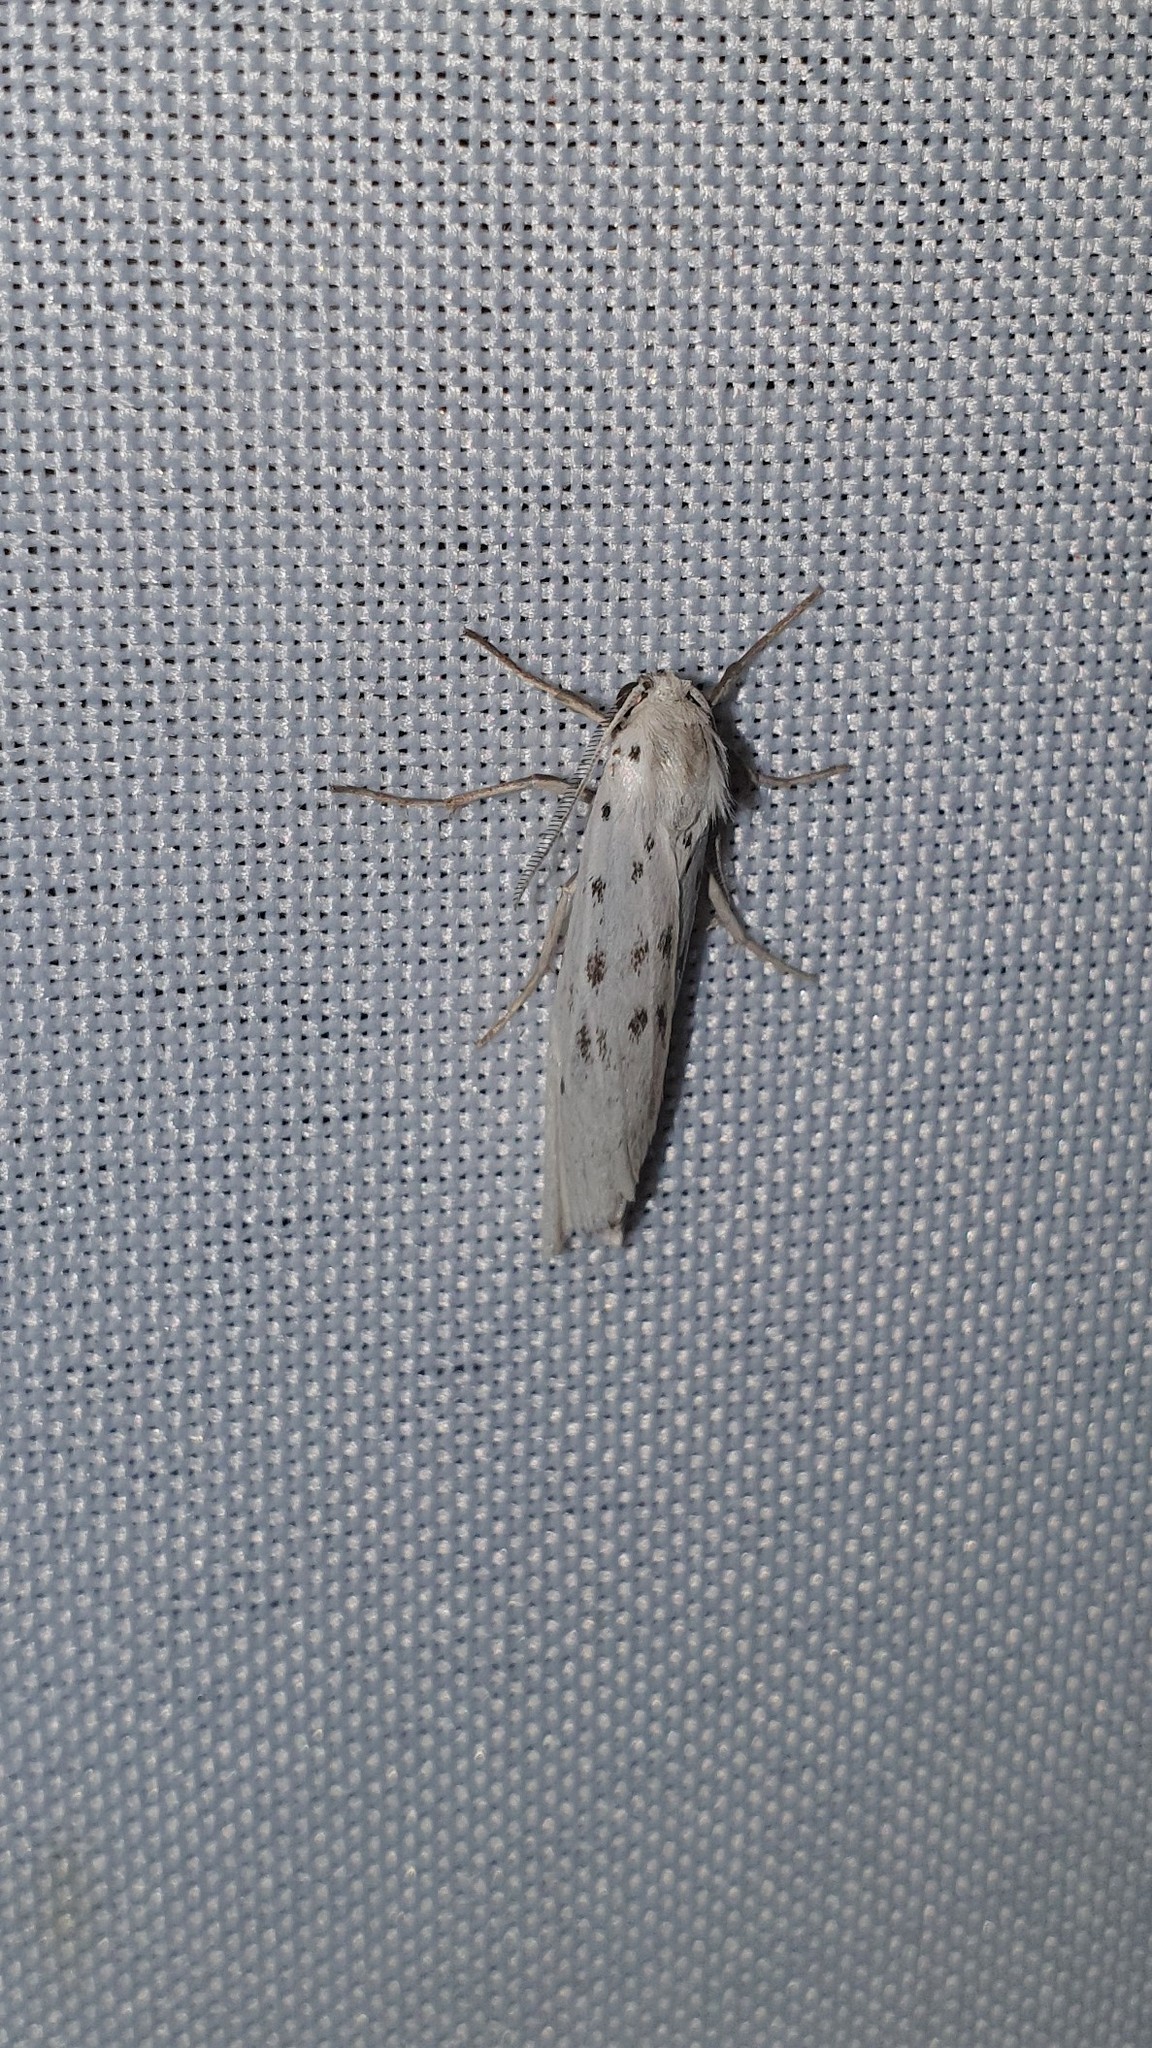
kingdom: Animalia
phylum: Arthropoda
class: Insecta
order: Lepidoptera
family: Erebidae
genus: Coscinia
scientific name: Coscinia cribraria
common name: Speckled footman
